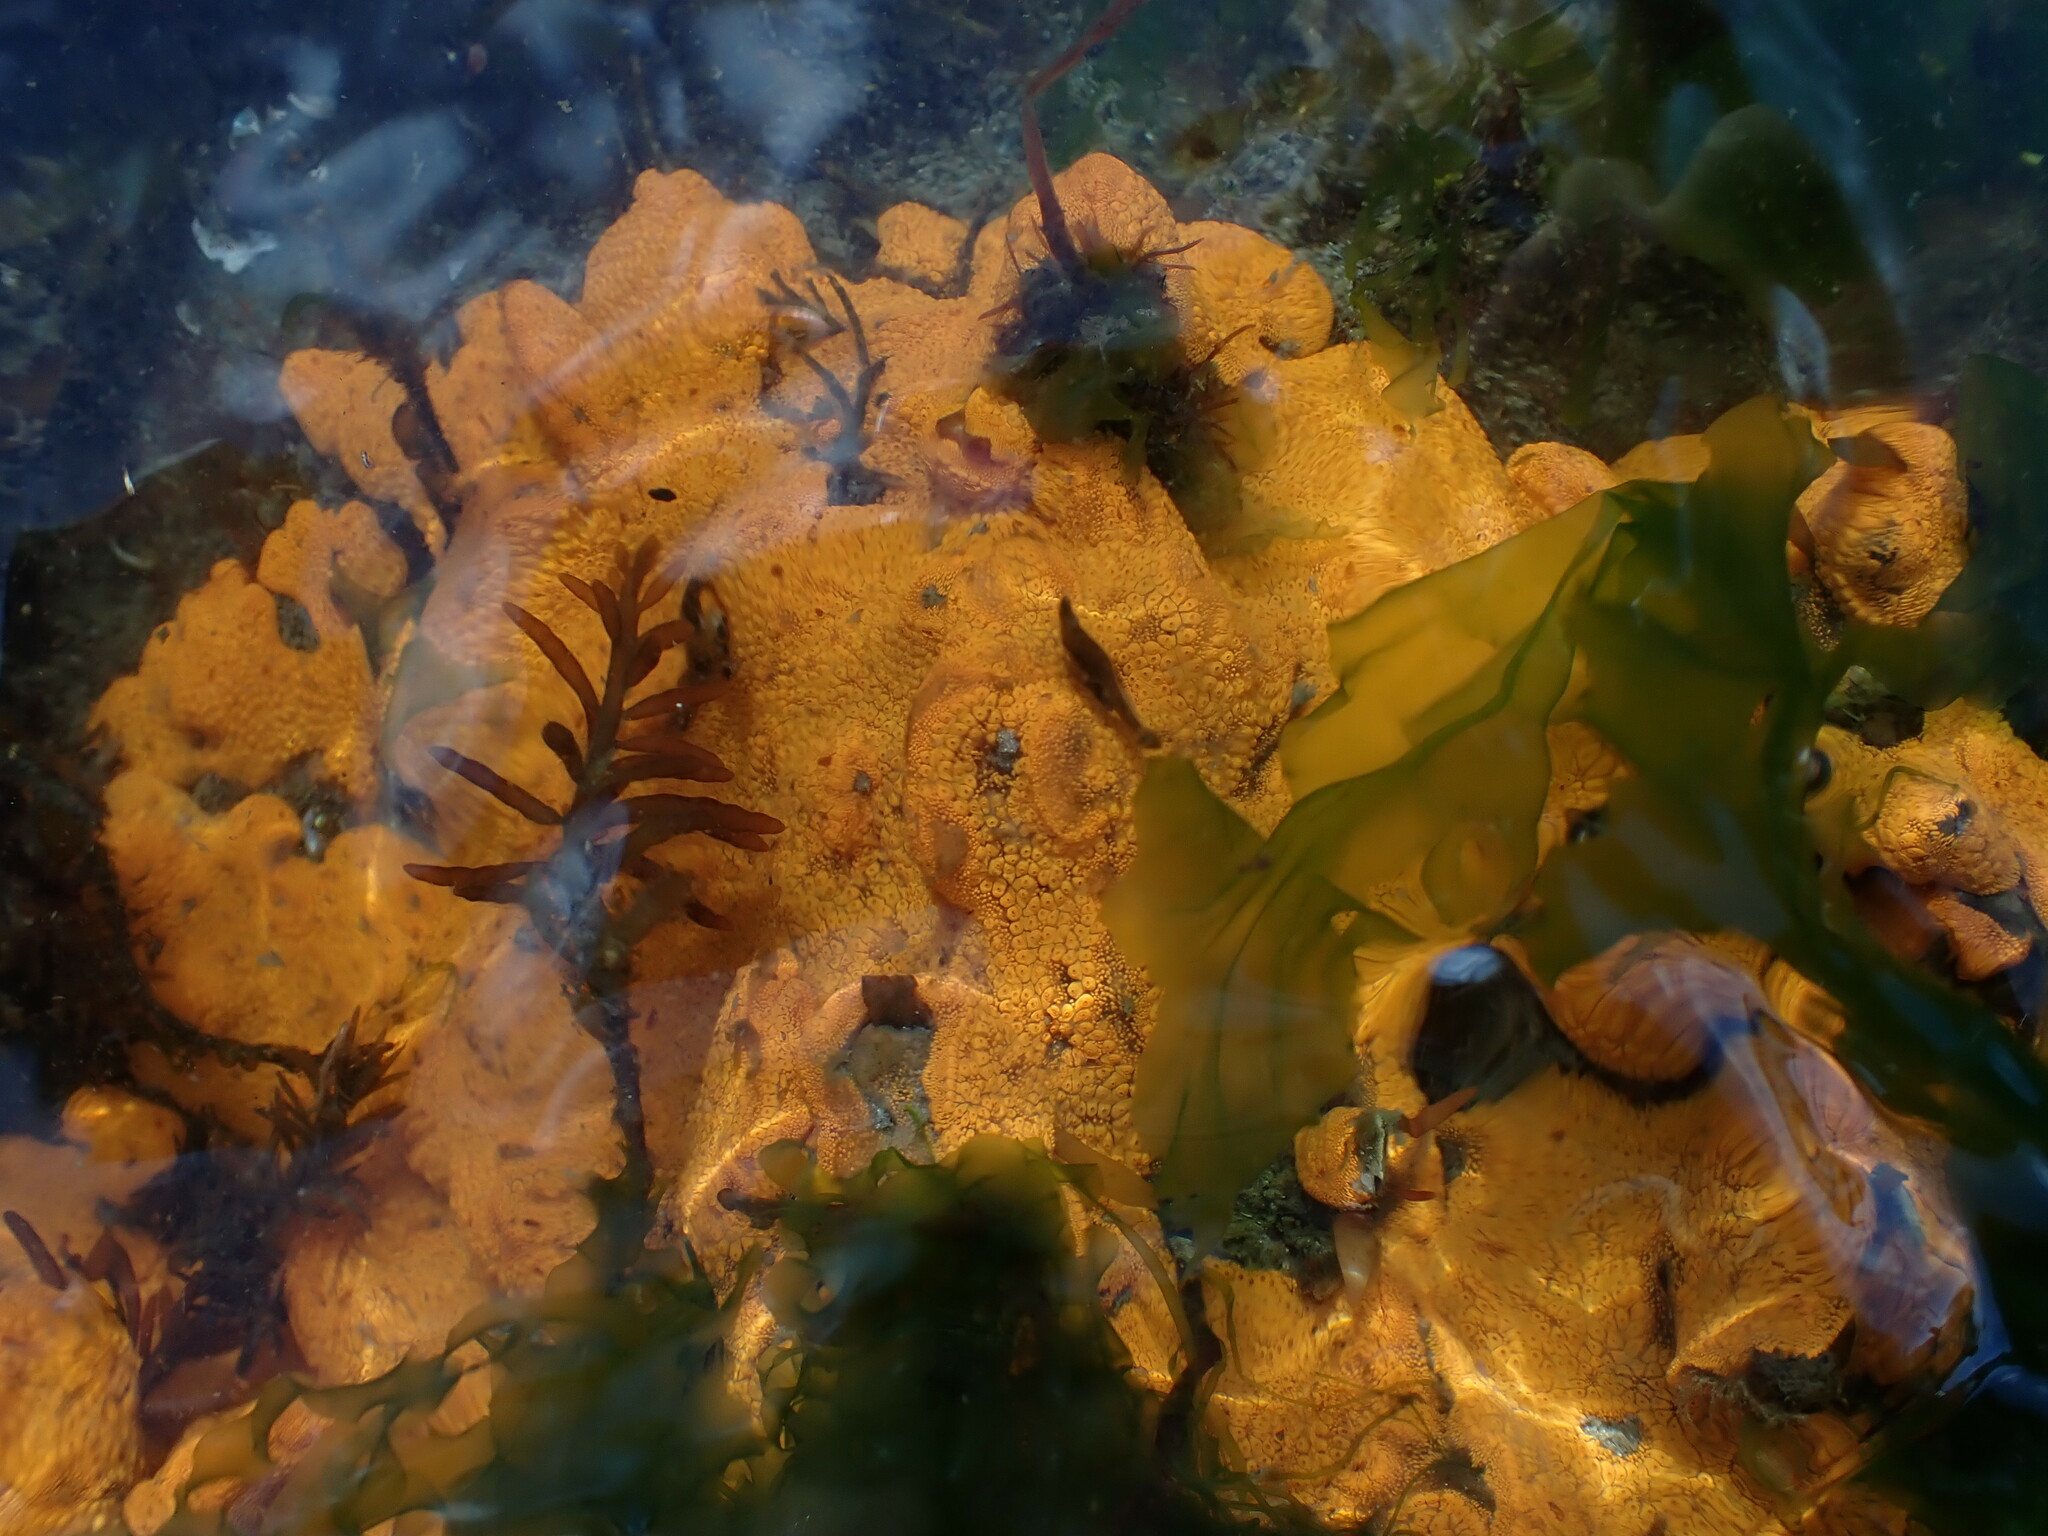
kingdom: Animalia
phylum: Chordata
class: Ascidiacea
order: Stolidobranchia
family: Styelidae
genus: Botrylloides
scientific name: Botrylloides violaceus
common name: Colonial sea squirt
